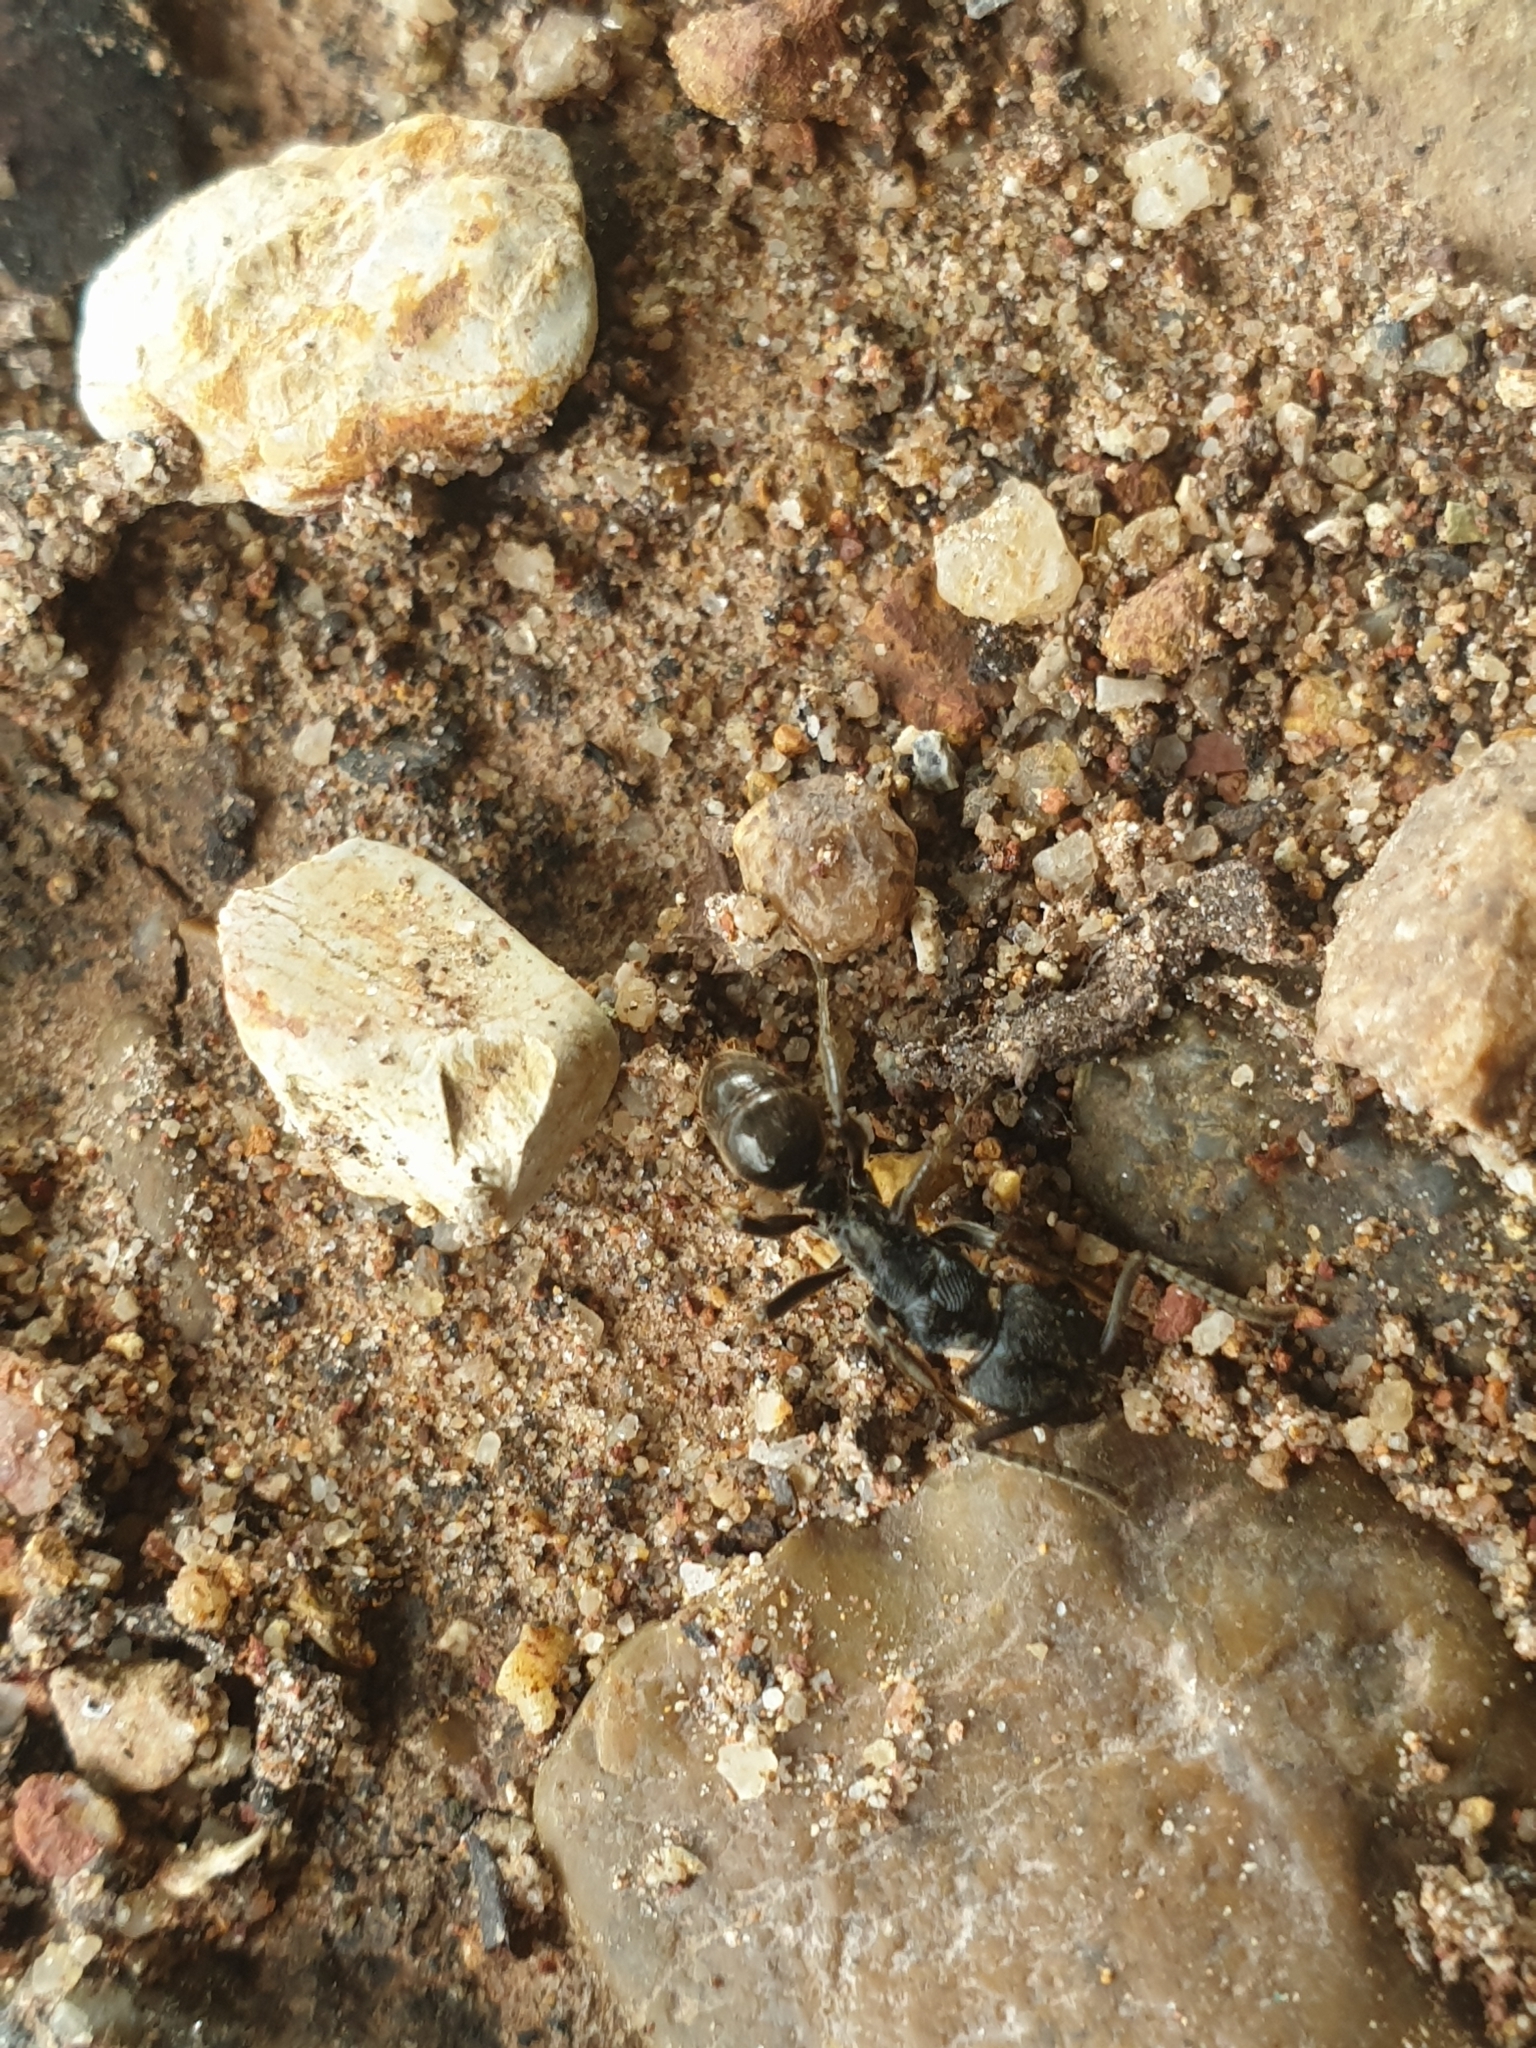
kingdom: Animalia
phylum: Arthropoda
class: Insecta
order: Hymenoptera
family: Formicidae
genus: Odontoponera
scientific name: Odontoponera denticulata
